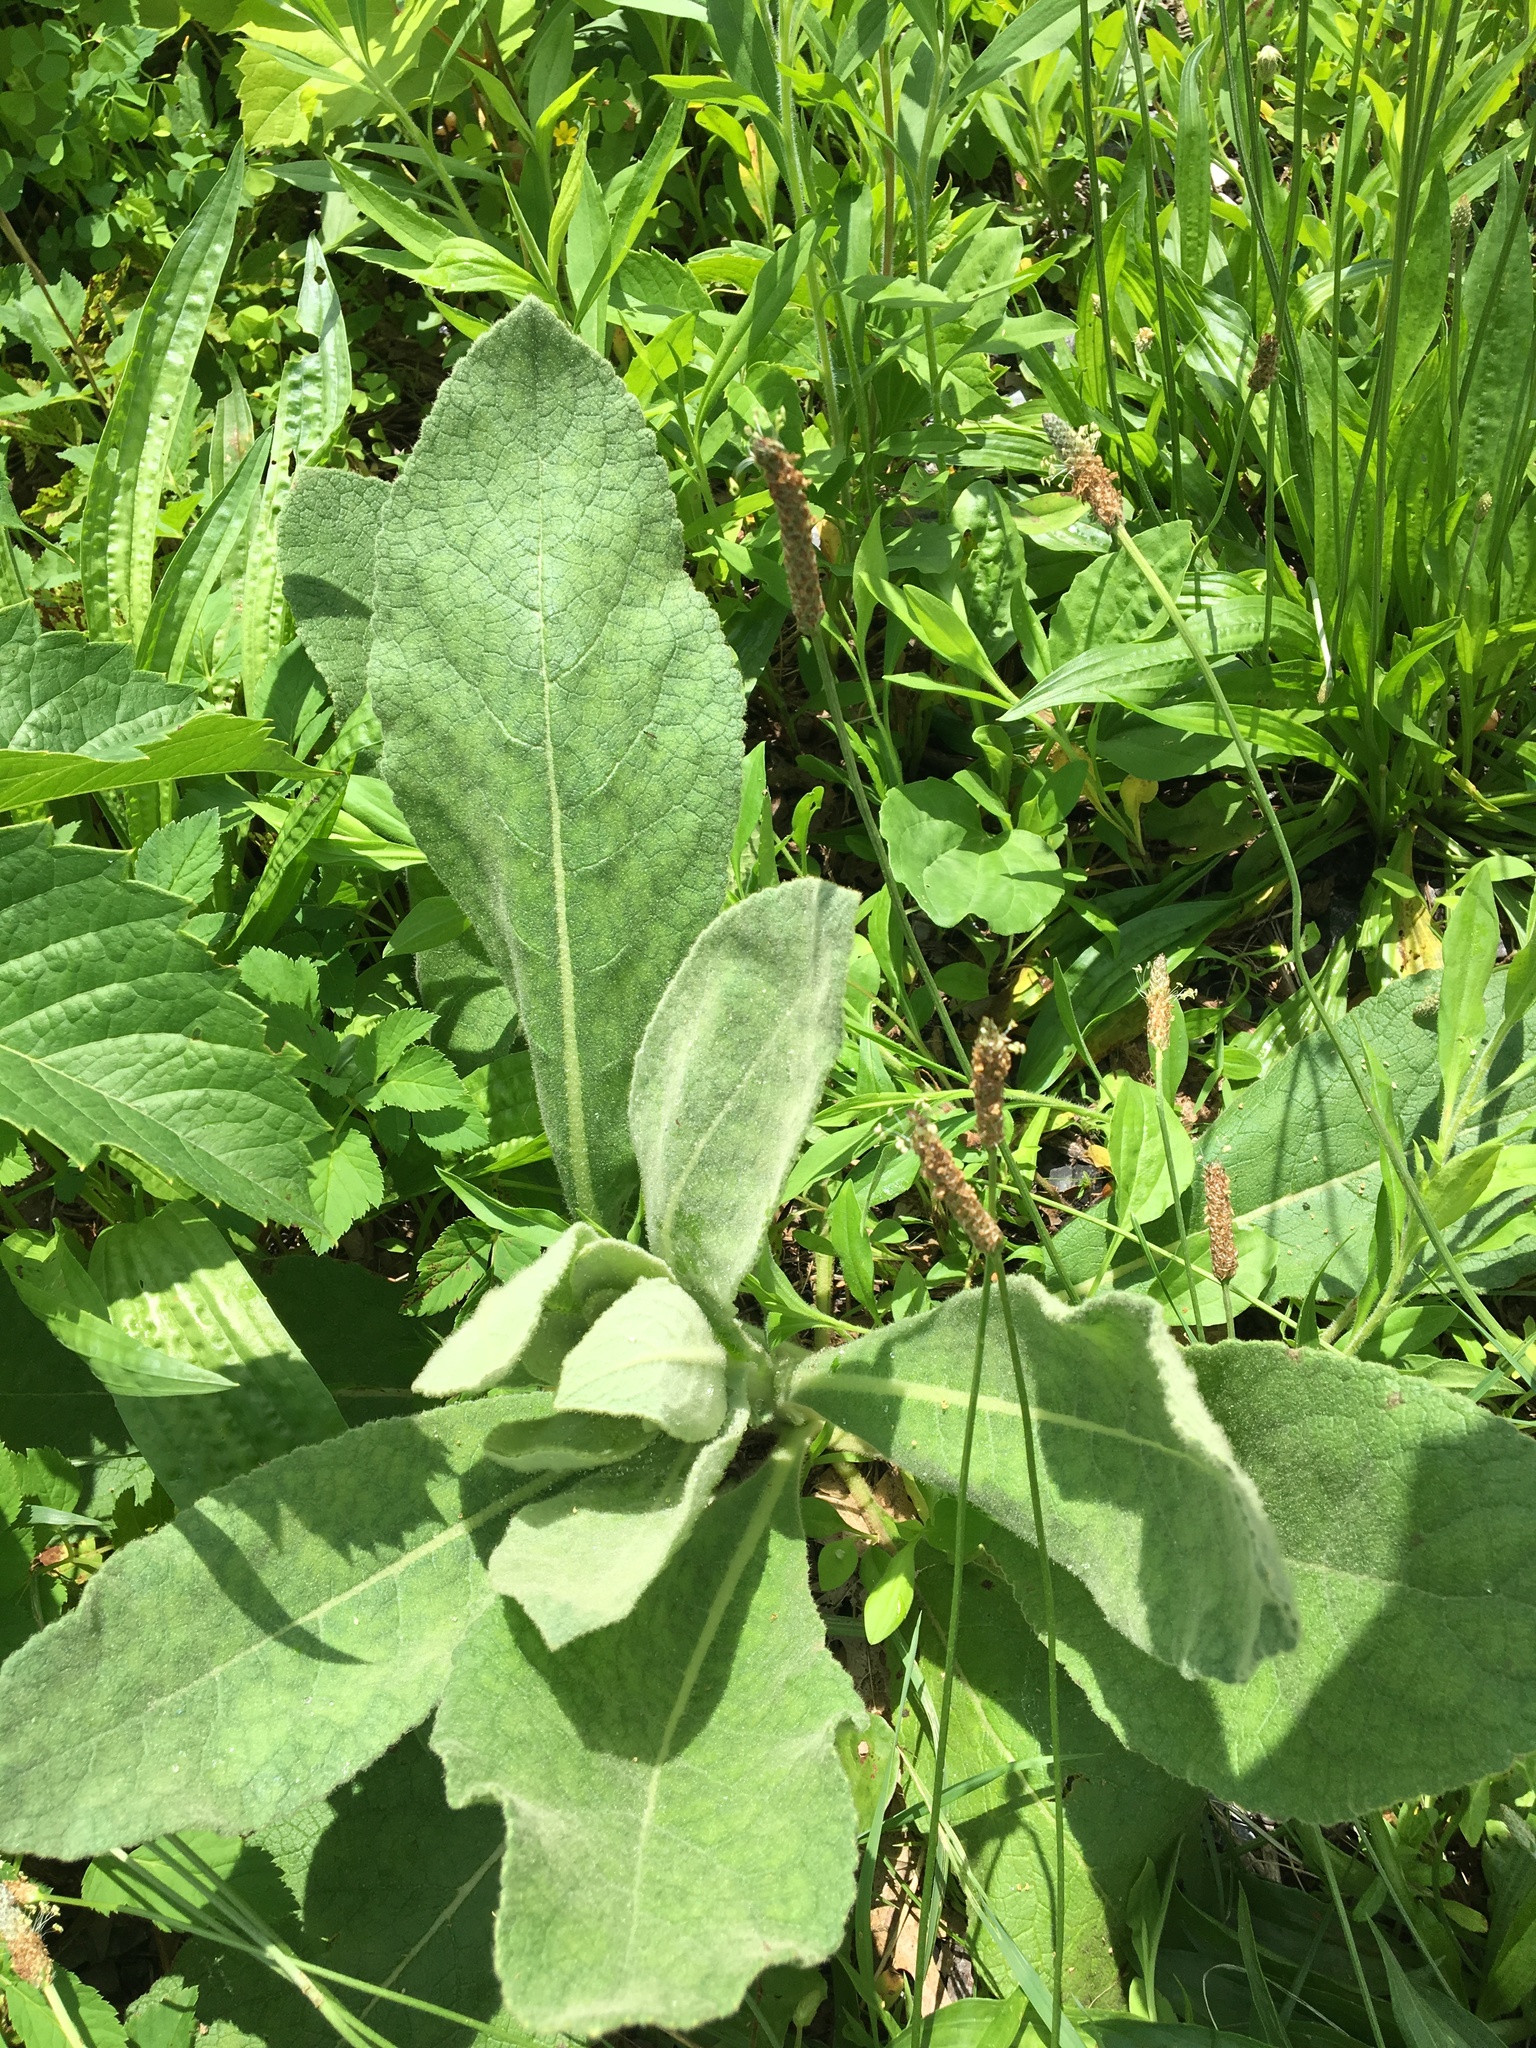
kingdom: Plantae
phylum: Tracheophyta
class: Magnoliopsida
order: Lamiales
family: Scrophulariaceae
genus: Verbascum
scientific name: Verbascum thapsus
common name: Common mullein
